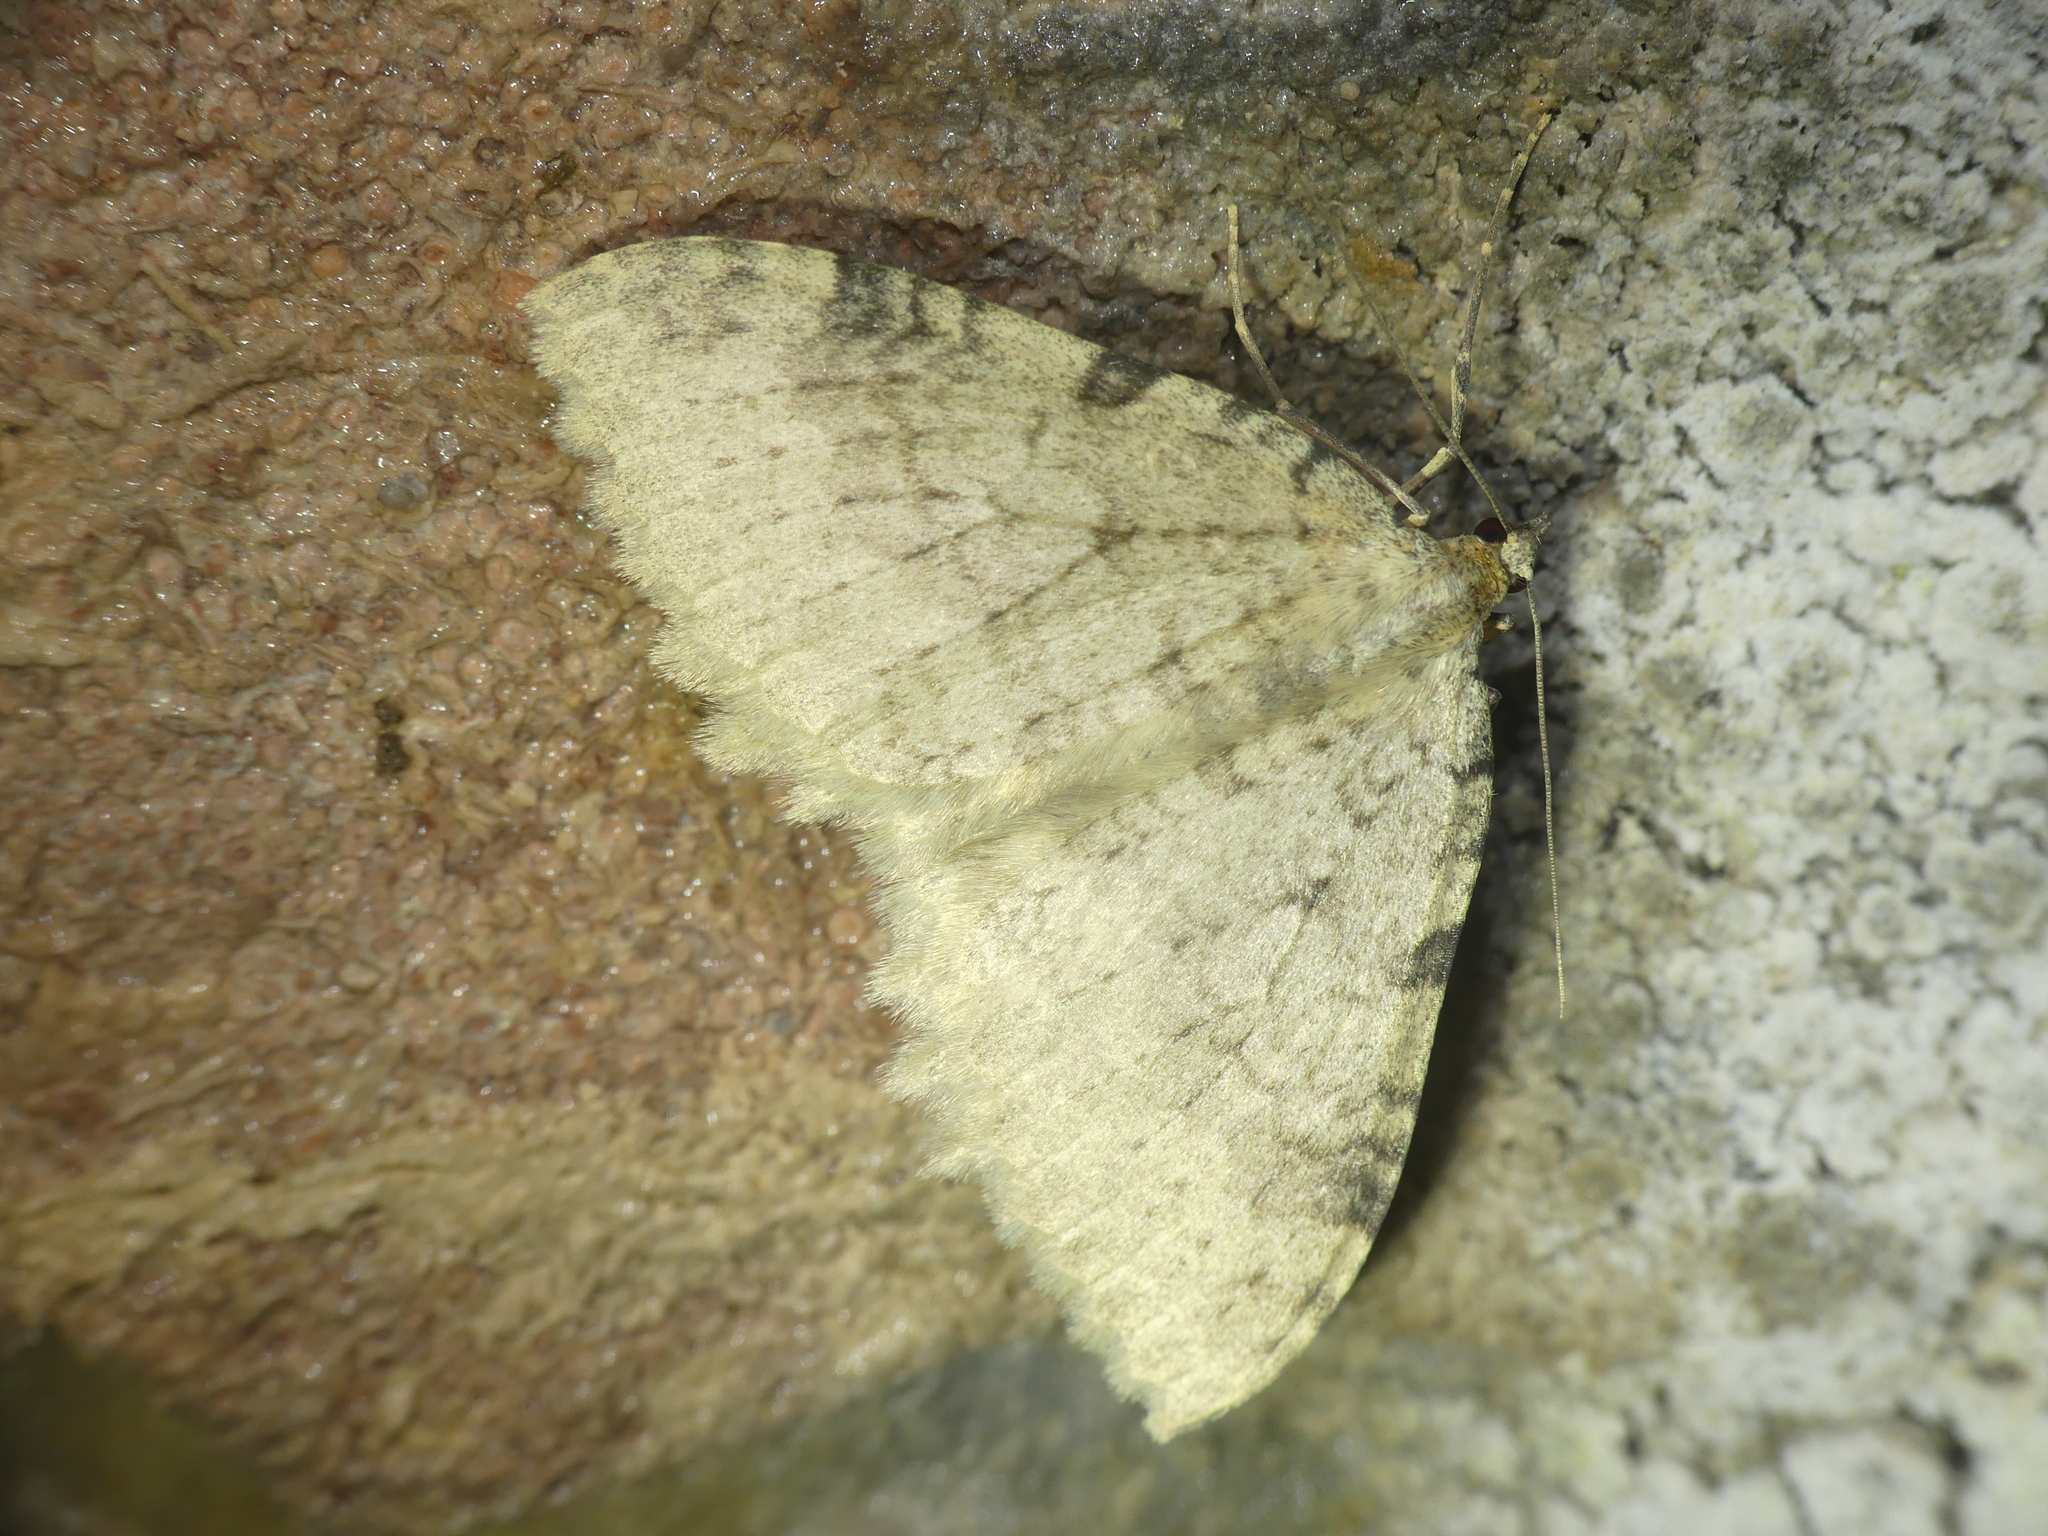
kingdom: Animalia
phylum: Arthropoda
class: Insecta
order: Lepidoptera
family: Geometridae
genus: Triphosa
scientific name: Triphosa sabaudiata
